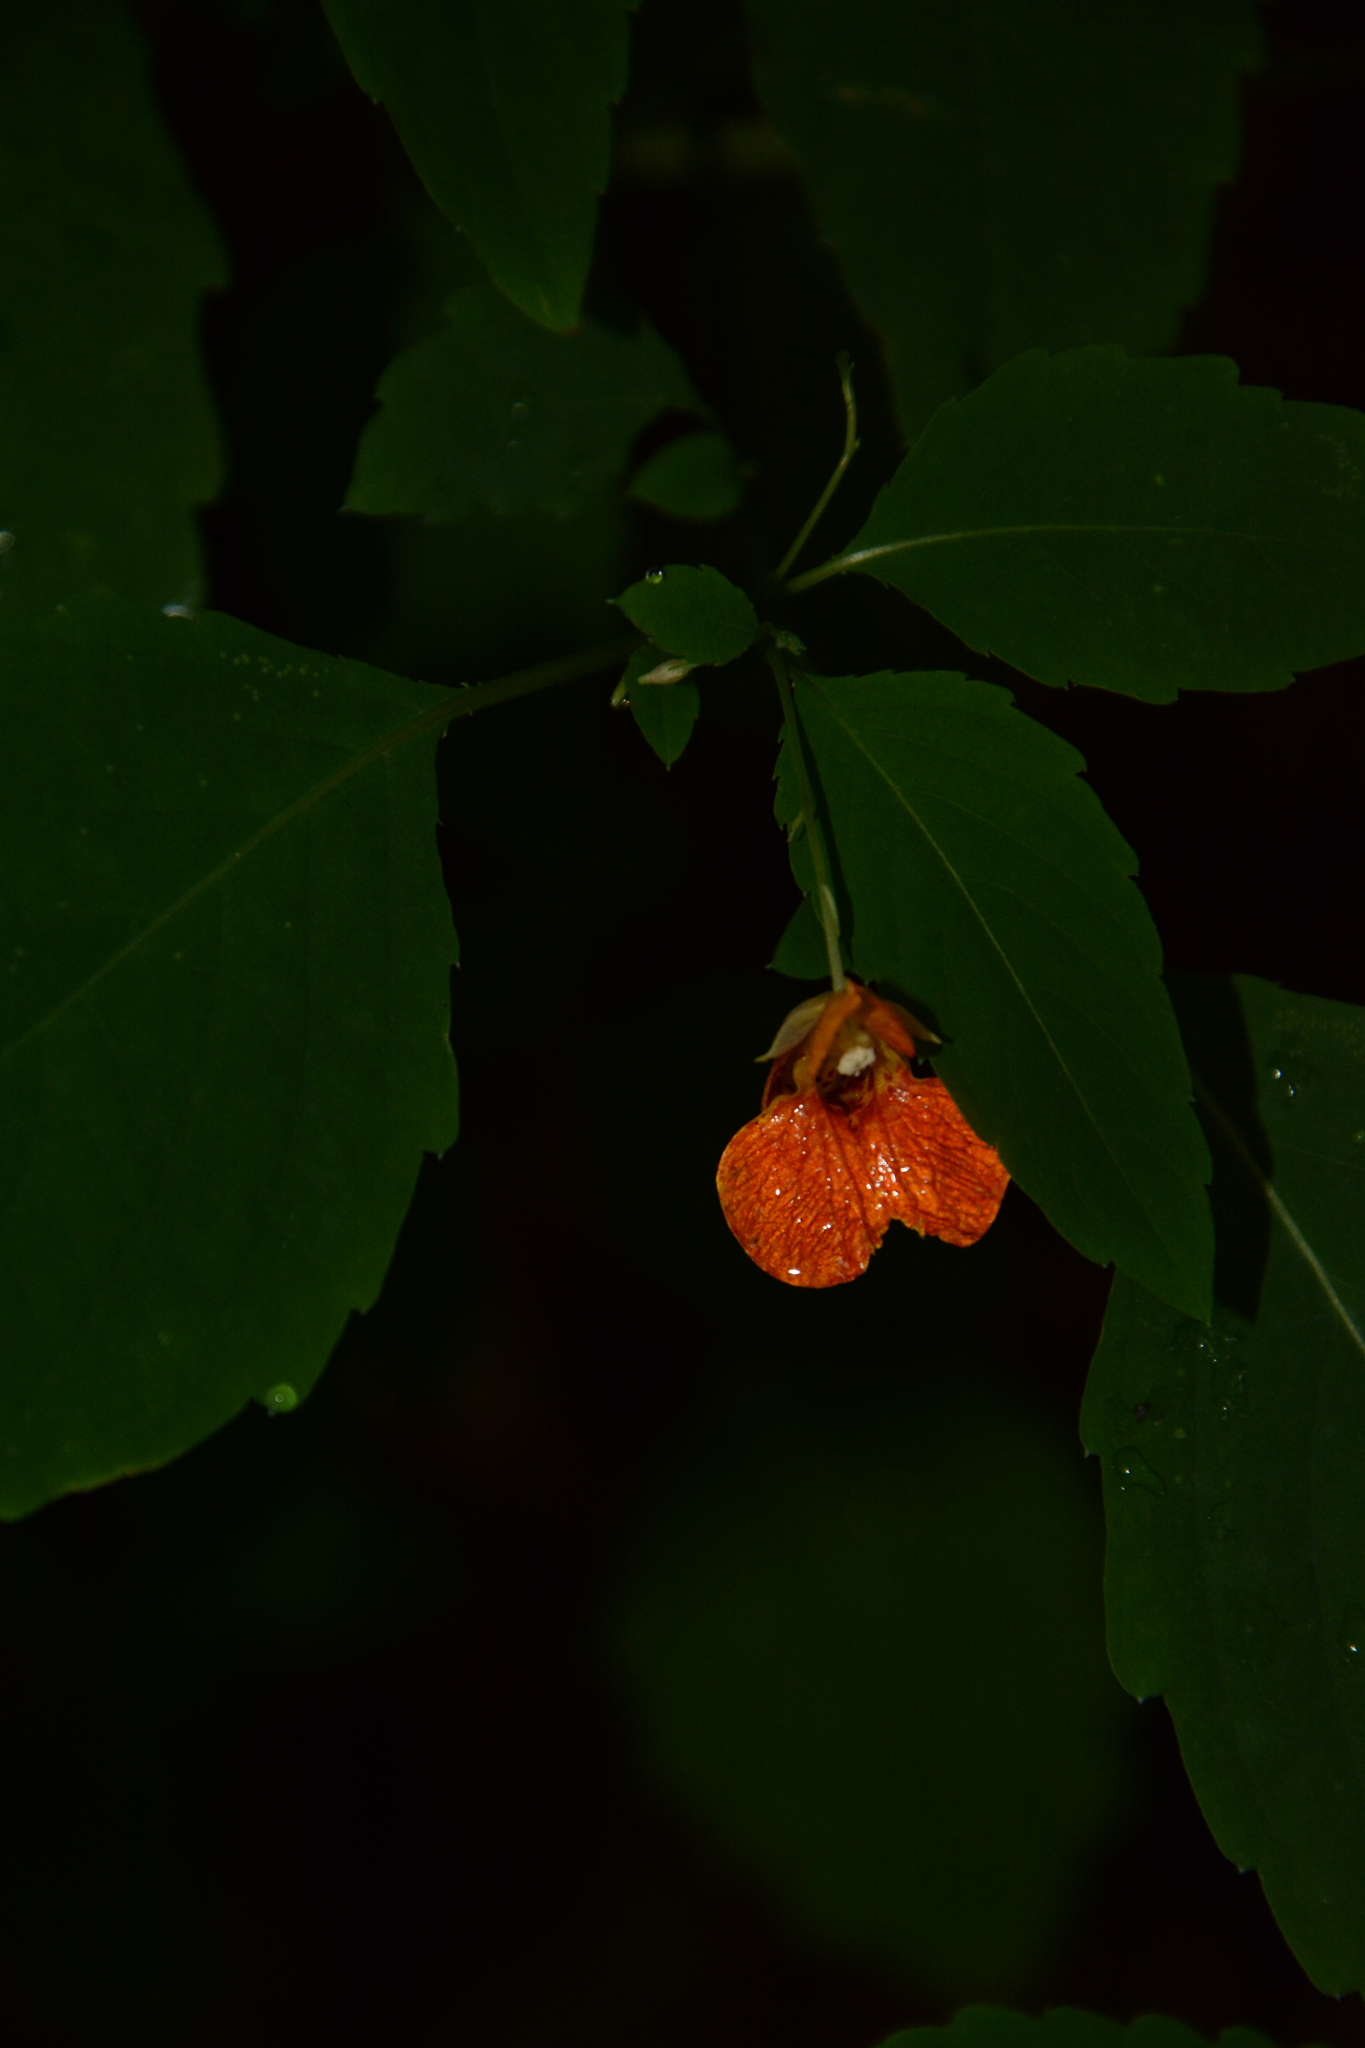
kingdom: Plantae
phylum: Tracheophyta
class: Magnoliopsida
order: Ericales
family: Balsaminaceae
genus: Impatiens
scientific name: Impatiens capensis
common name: Orange balsam
